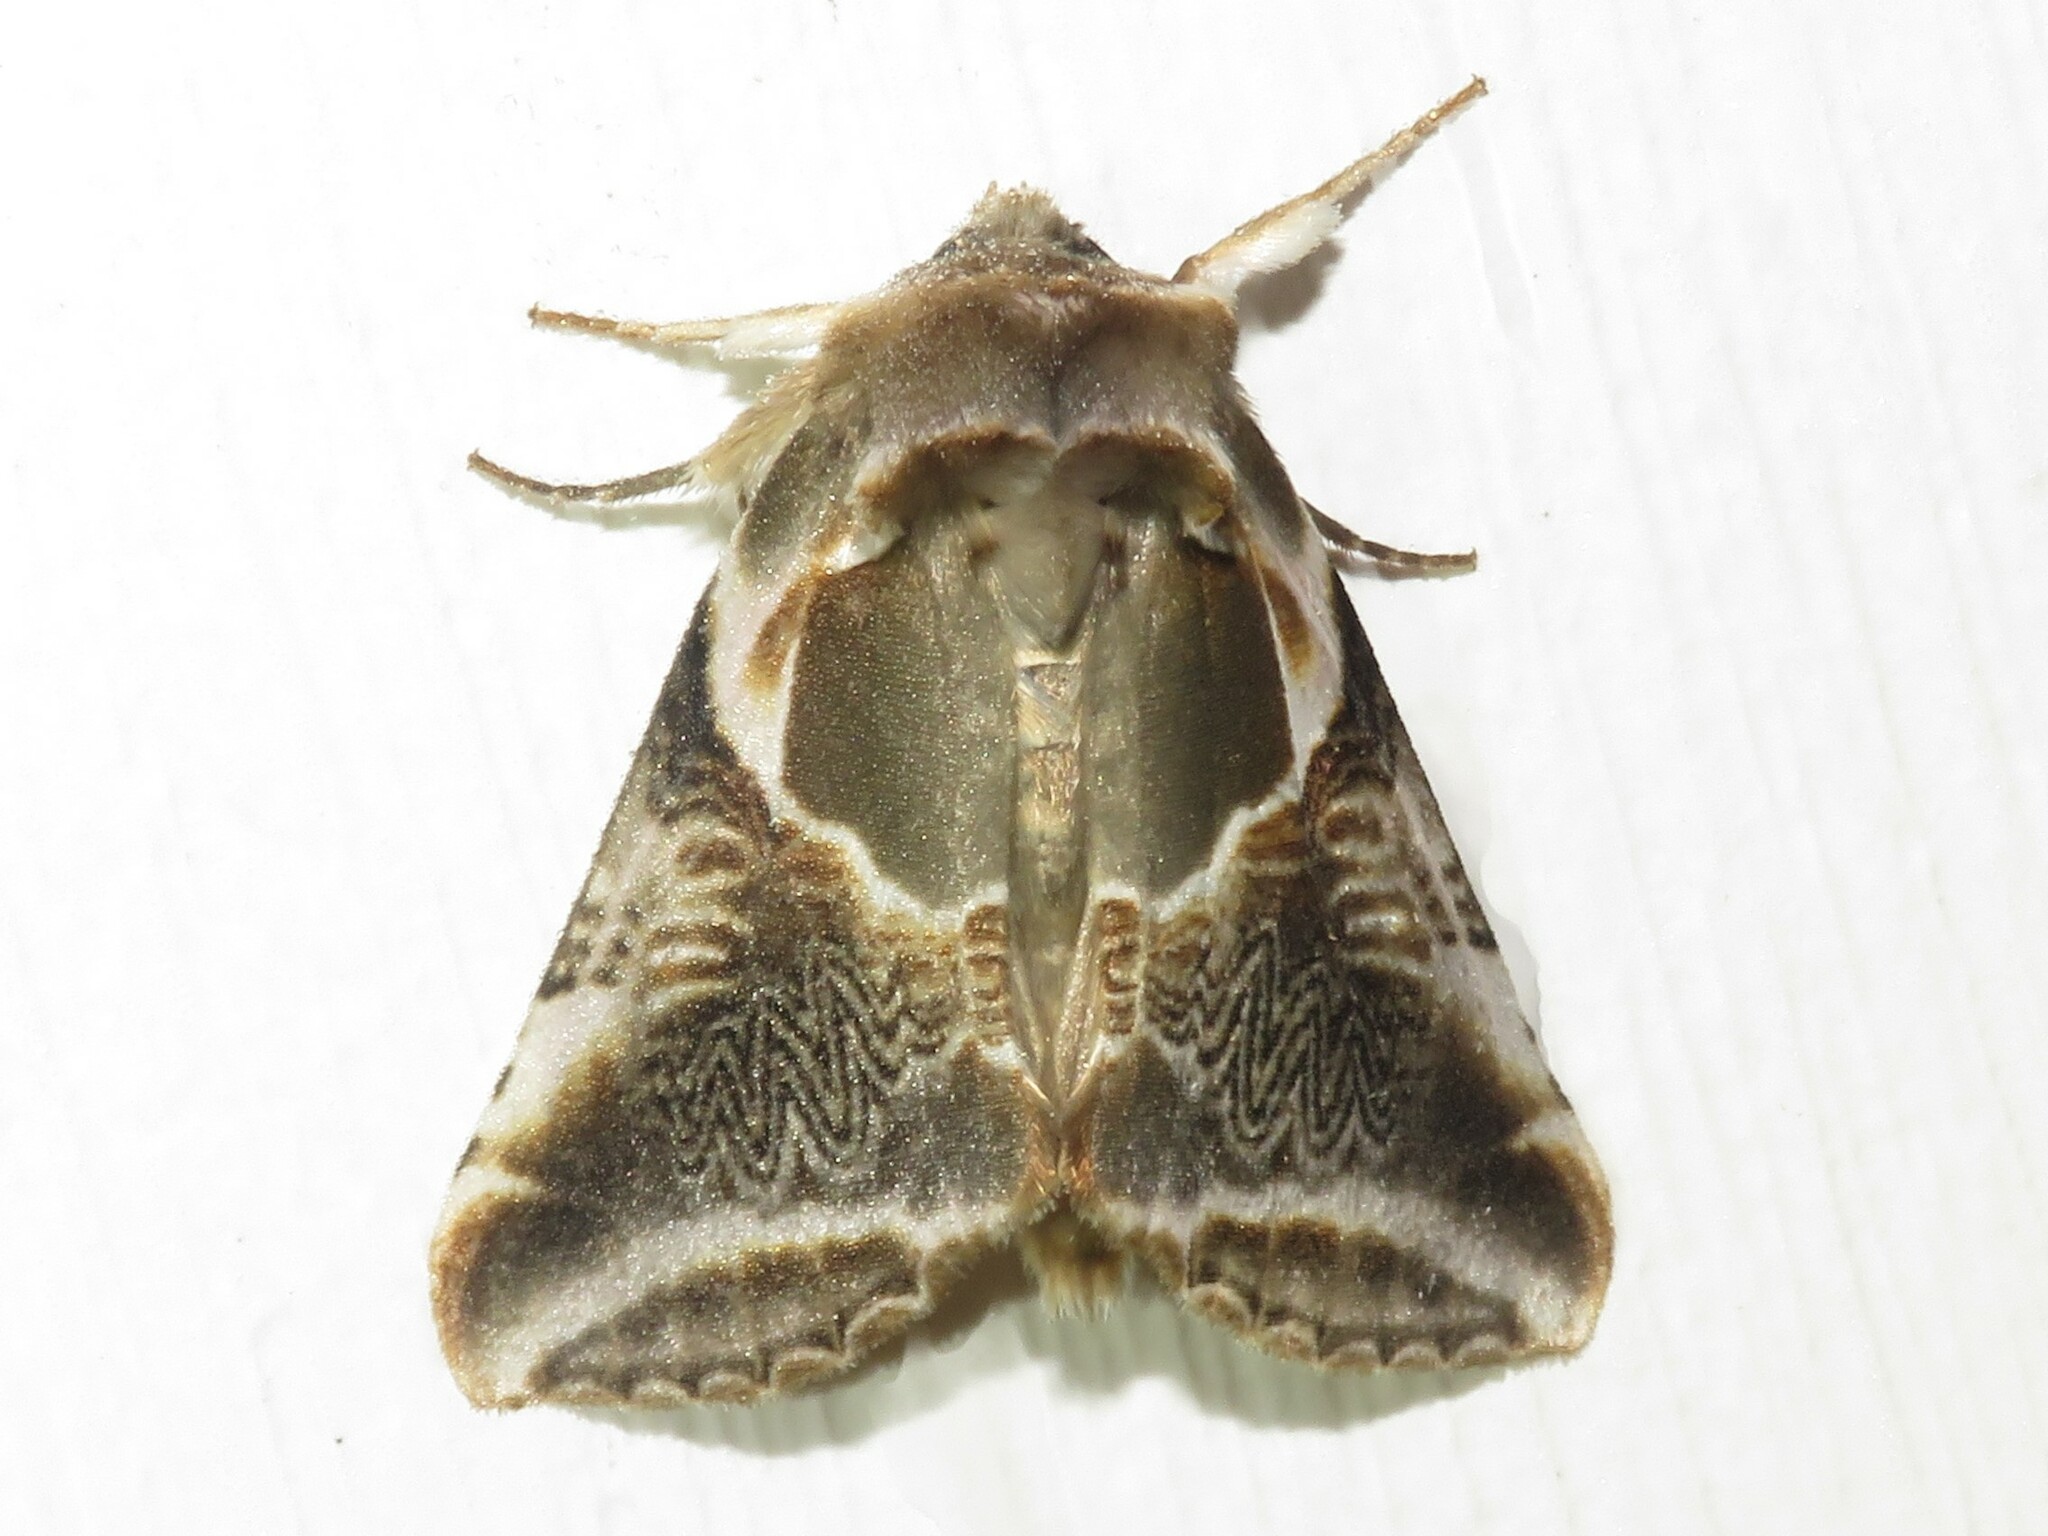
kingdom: Animalia
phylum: Arthropoda
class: Insecta
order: Lepidoptera
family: Drepanidae
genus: Habrosyne
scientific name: Habrosyne scripta
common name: Lettered habrosyne moth
